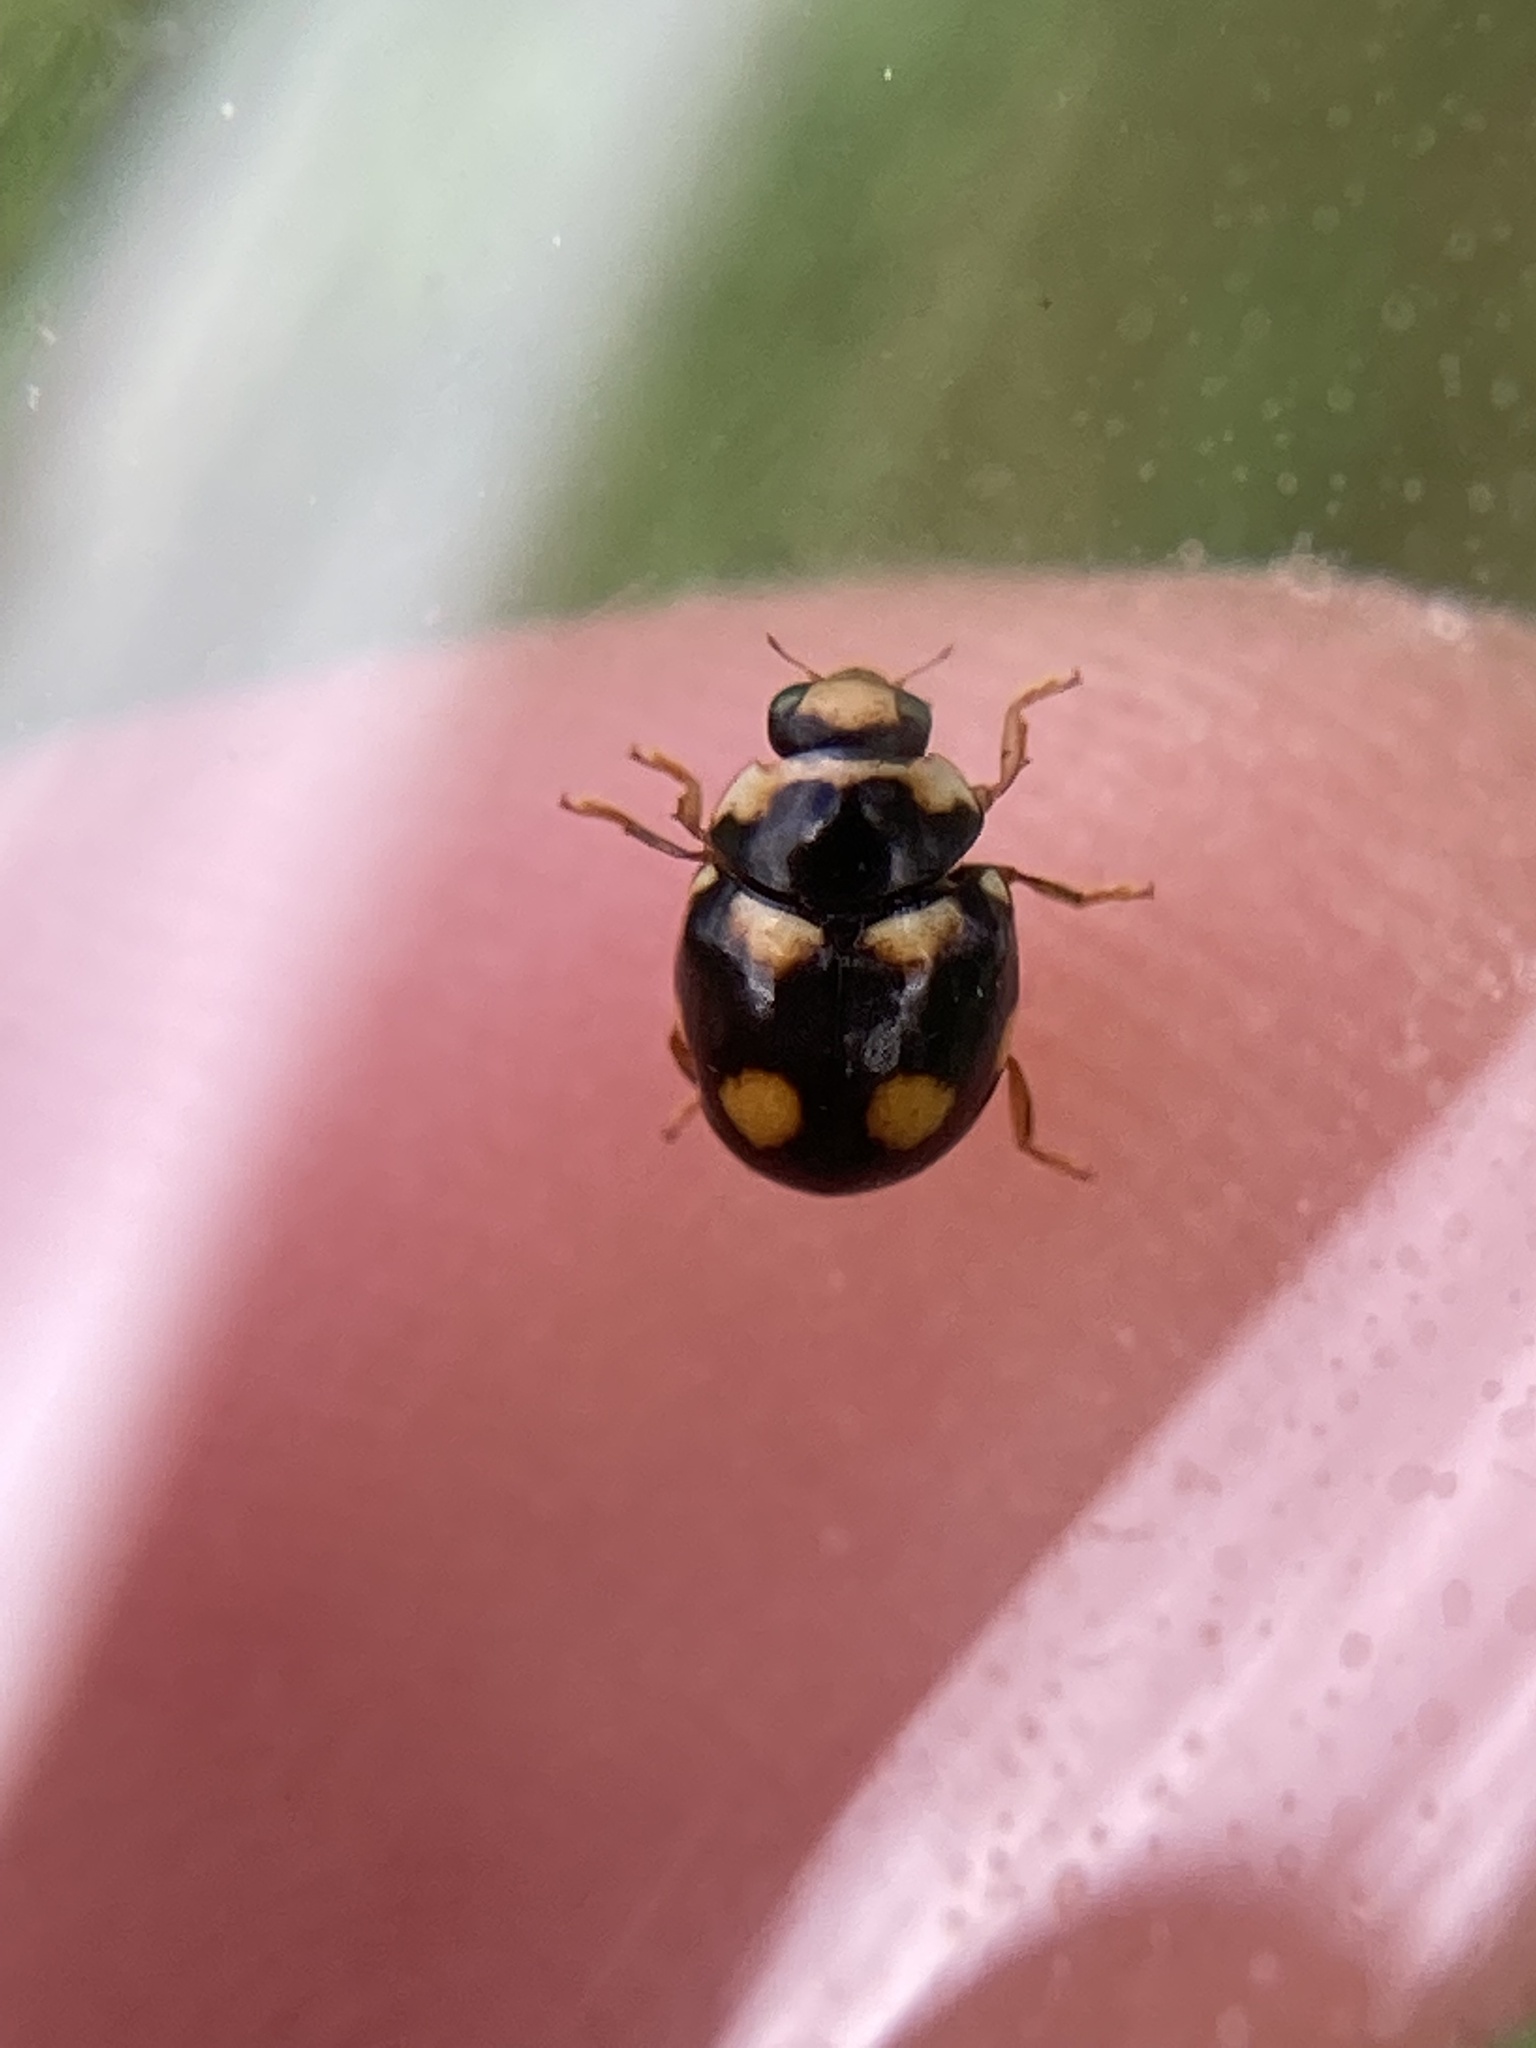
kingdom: Animalia
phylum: Arthropoda
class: Insecta
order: Coleoptera
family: Coccinellidae
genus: Brachiacantha
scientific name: Brachiacantha ursina
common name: Ursine spurleg lady beetle
